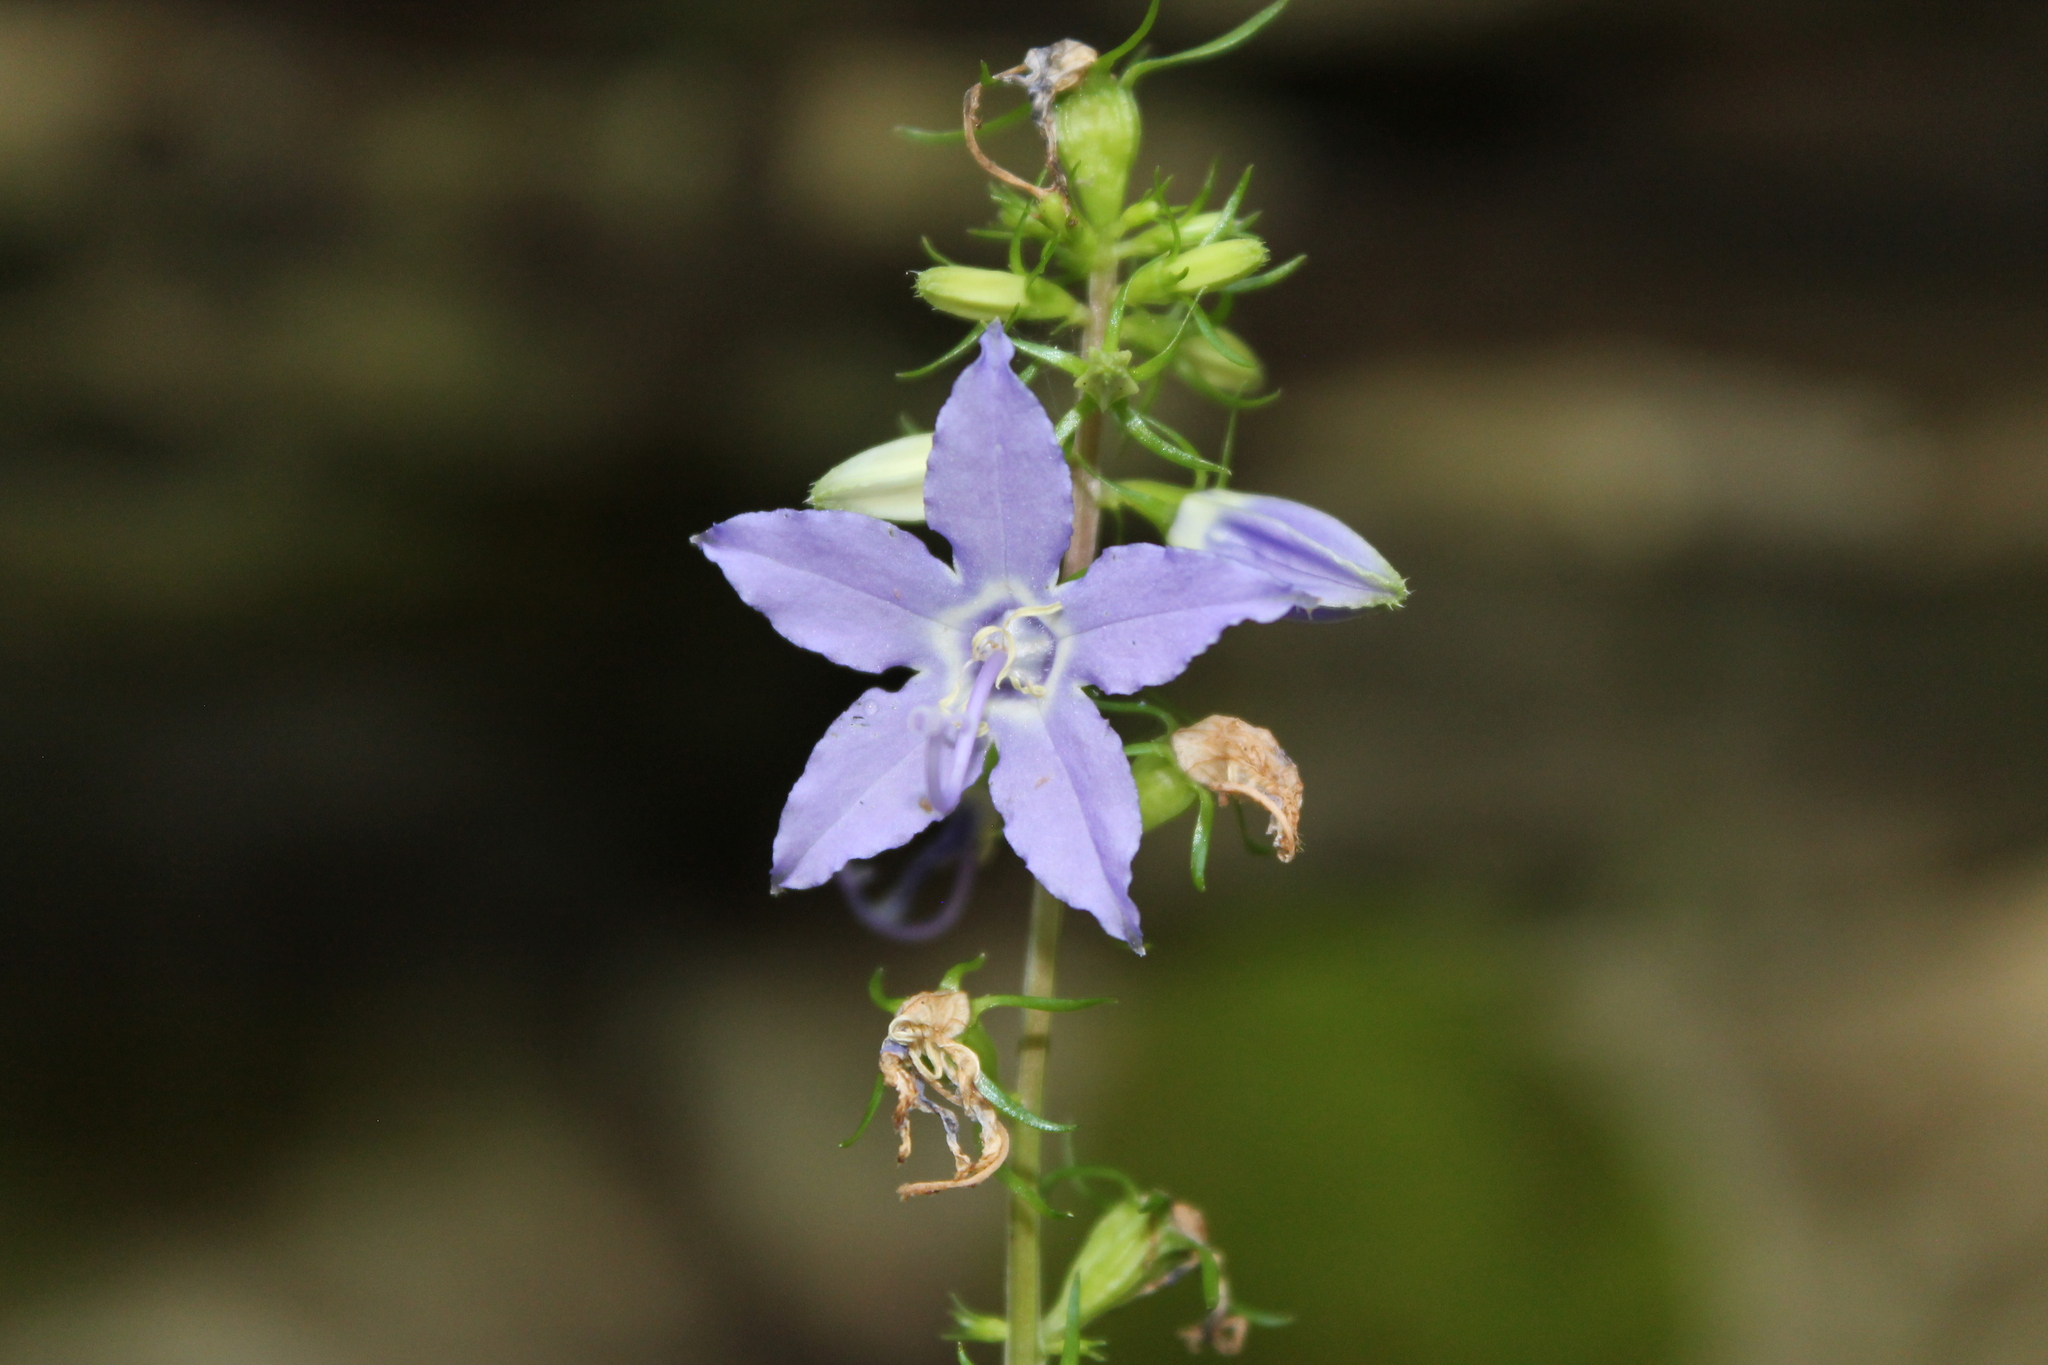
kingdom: Plantae
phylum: Tracheophyta
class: Magnoliopsida
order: Asterales
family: Campanulaceae
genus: Campanulastrum
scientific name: Campanulastrum americanum
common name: American bellflower
